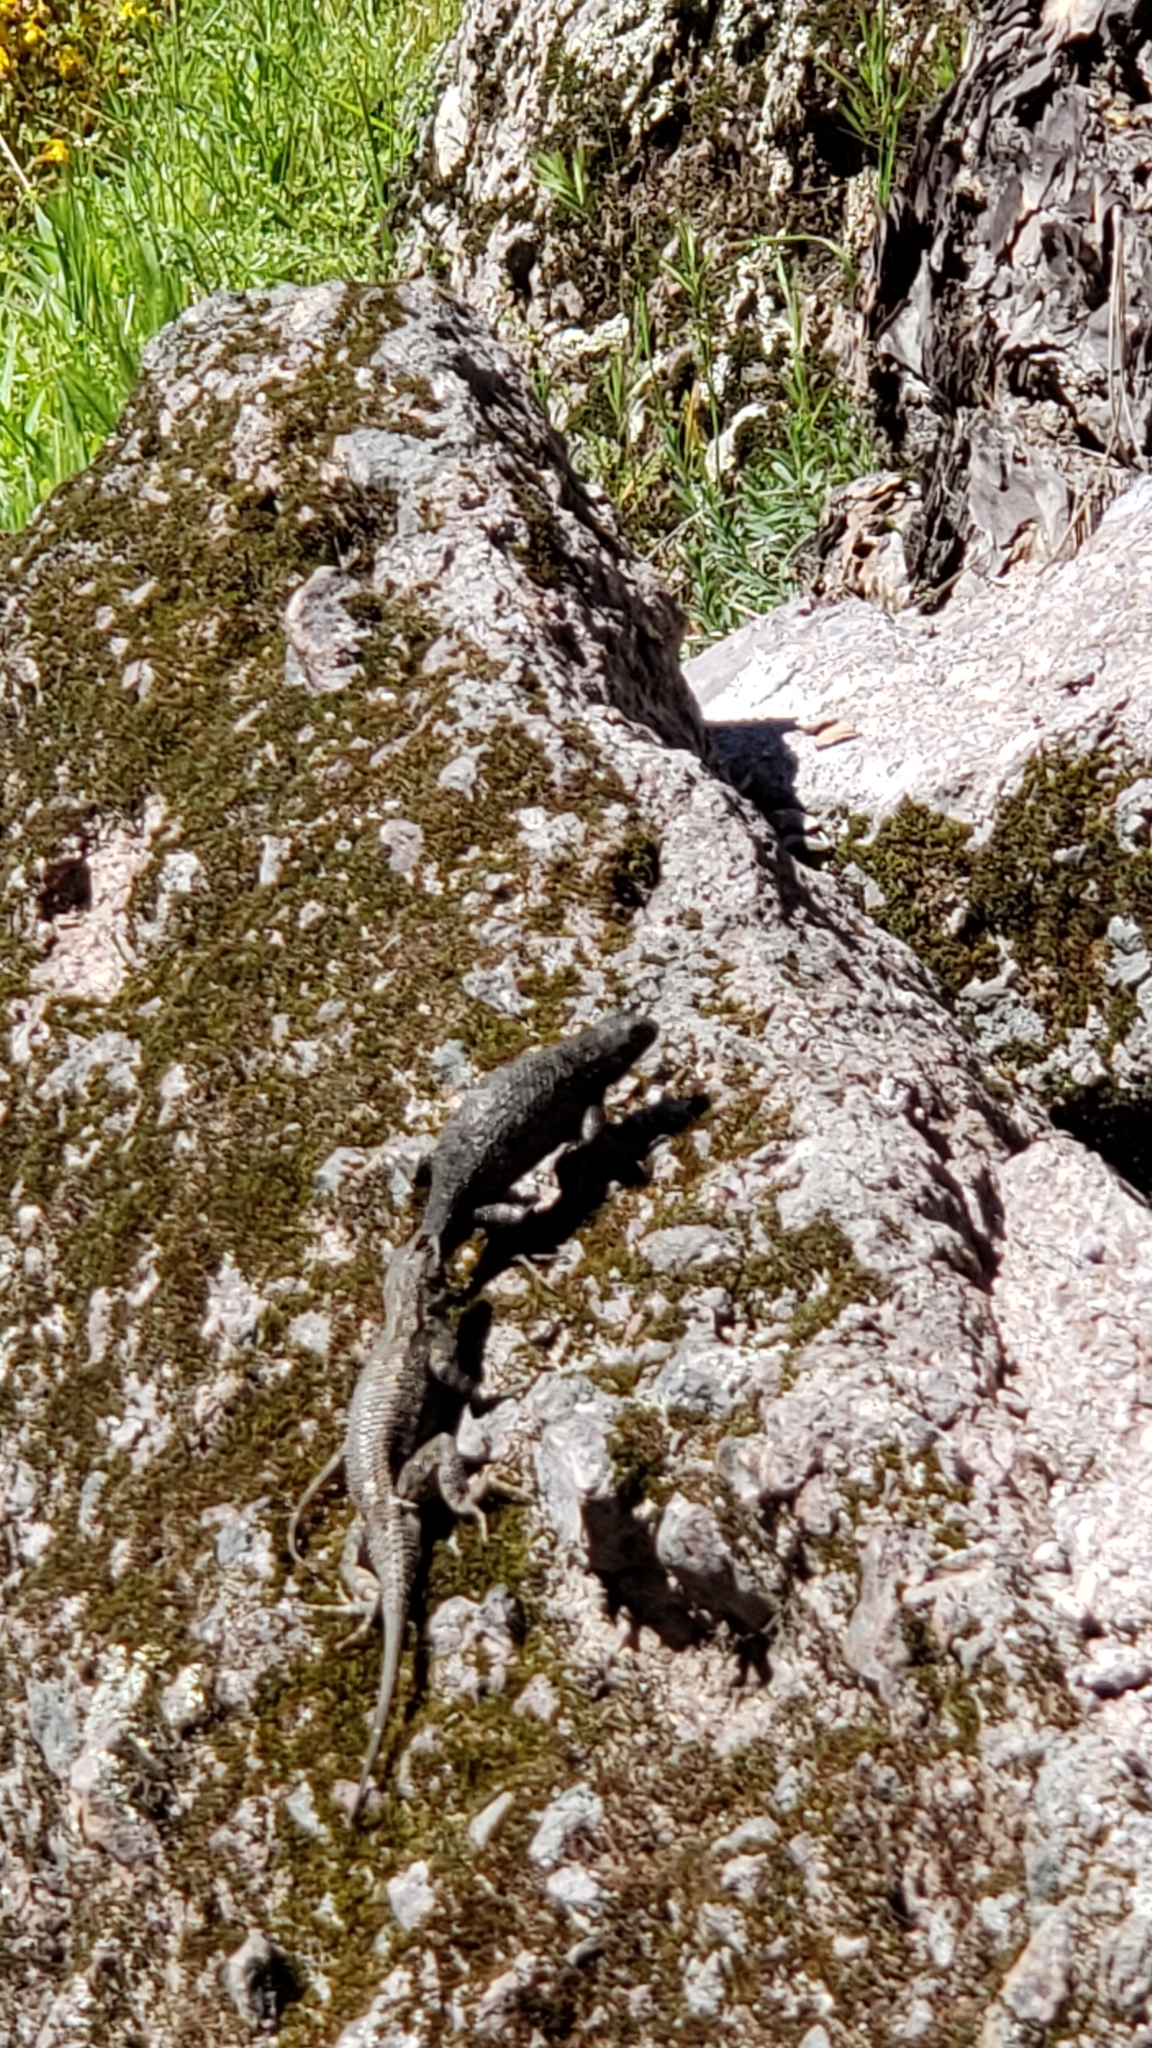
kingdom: Animalia
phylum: Chordata
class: Squamata
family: Phrynosomatidae
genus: Sceloporus
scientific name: Sceloporus occidentalis
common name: Western fence lizard
